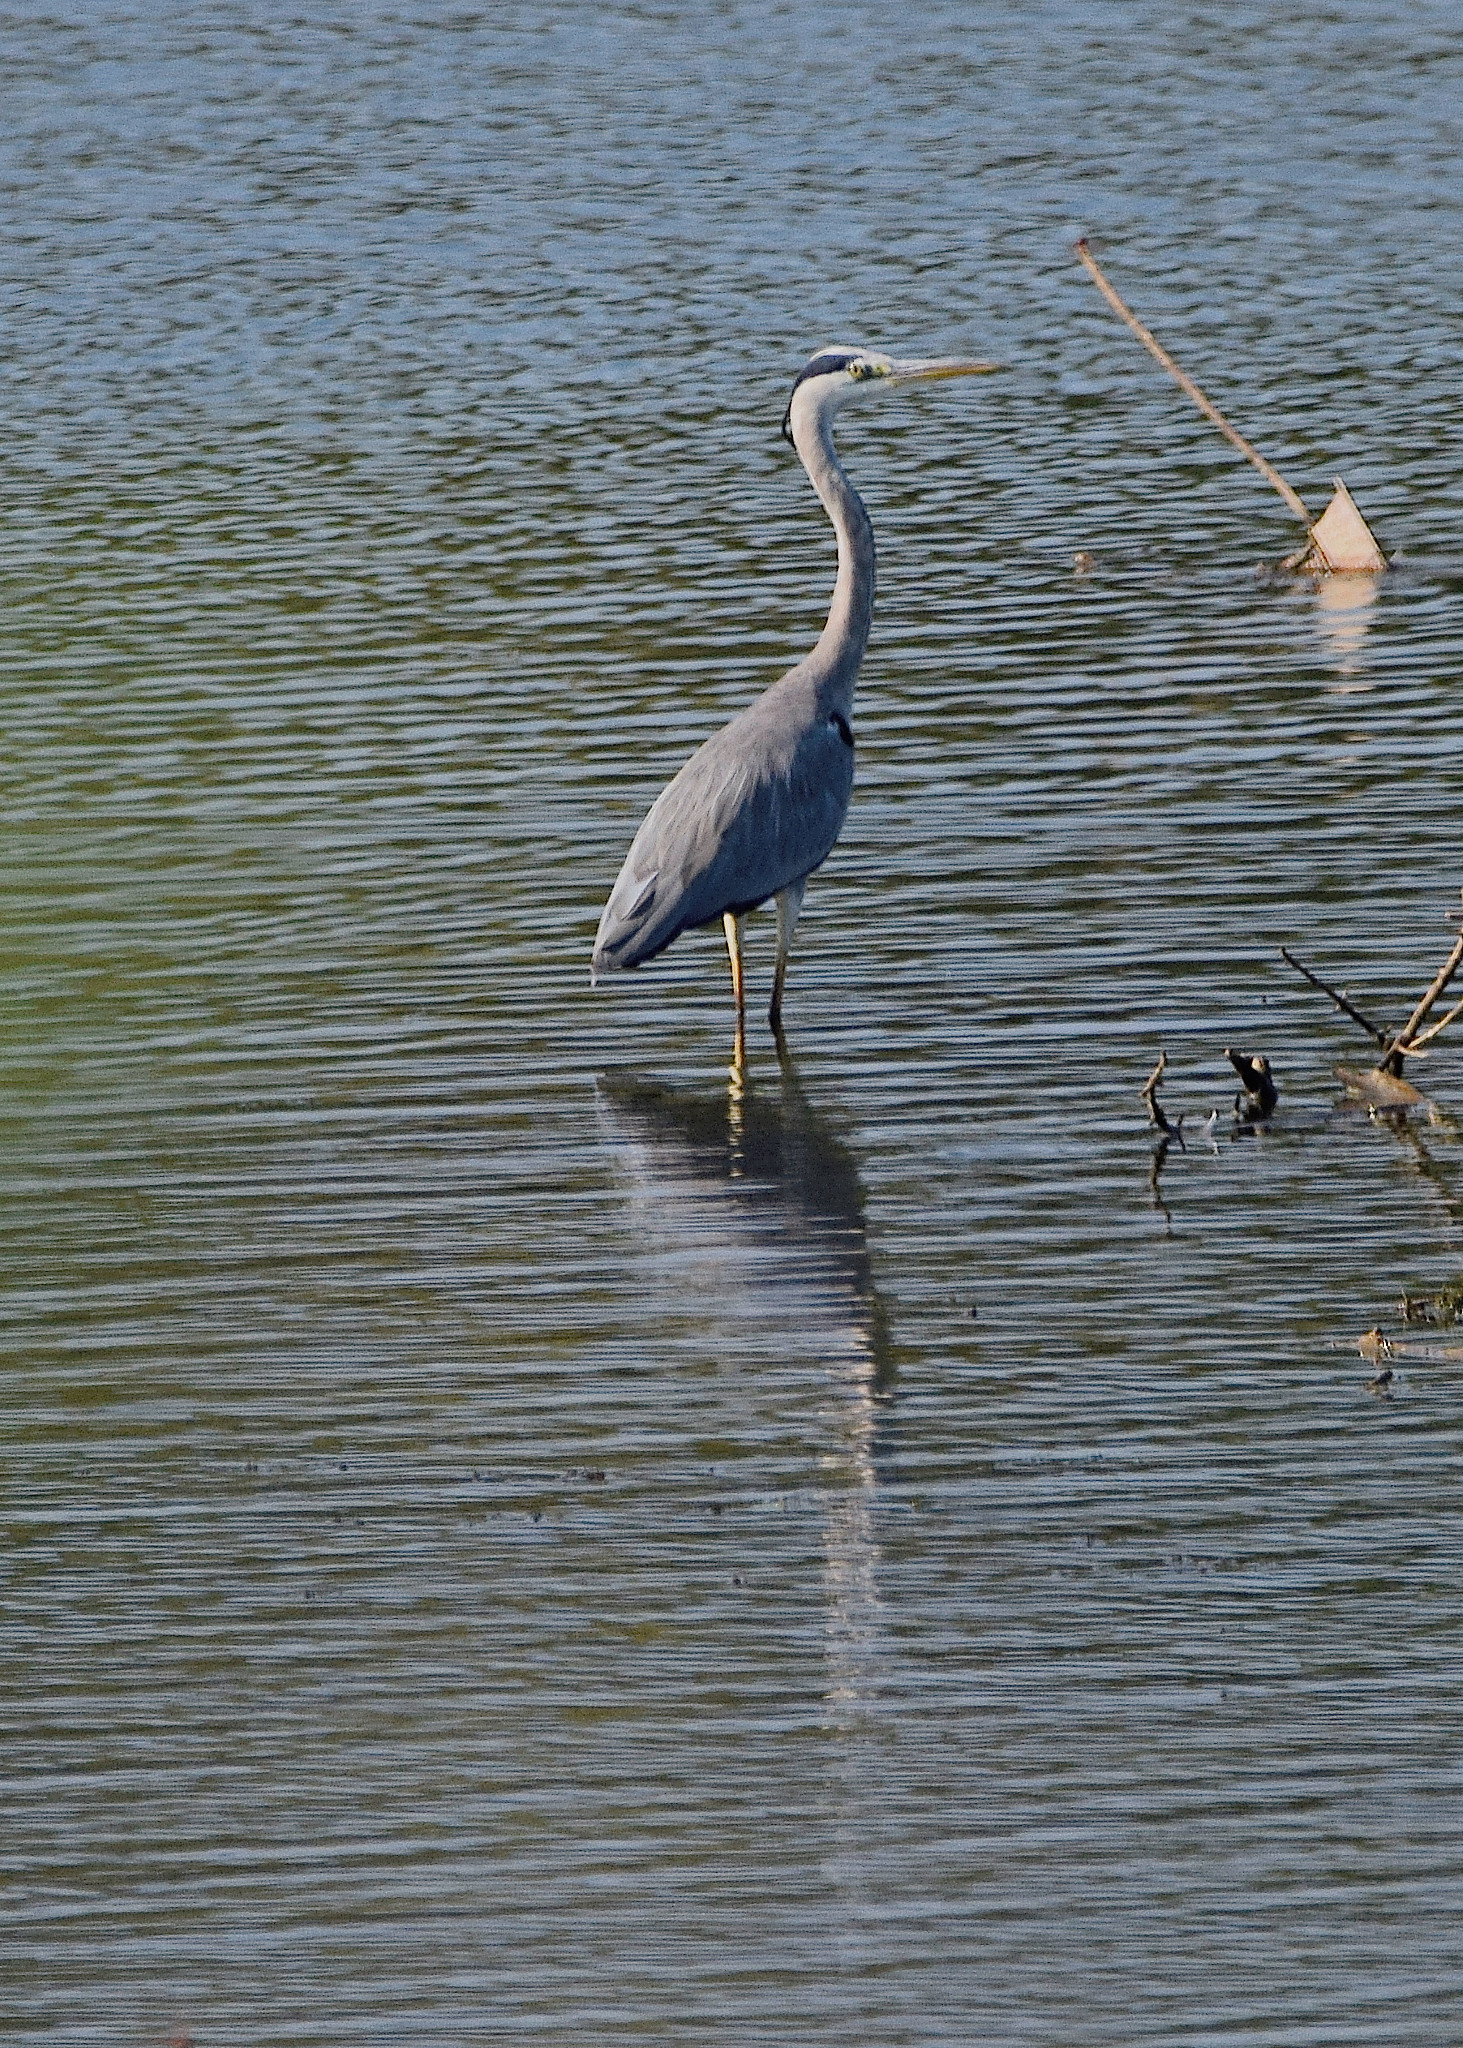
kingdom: Animalia
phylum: Chordata
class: Aves
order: Pelecaniformes
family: Ardeidae
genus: Ardea
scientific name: Ardea cinerea
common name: Grey heron
